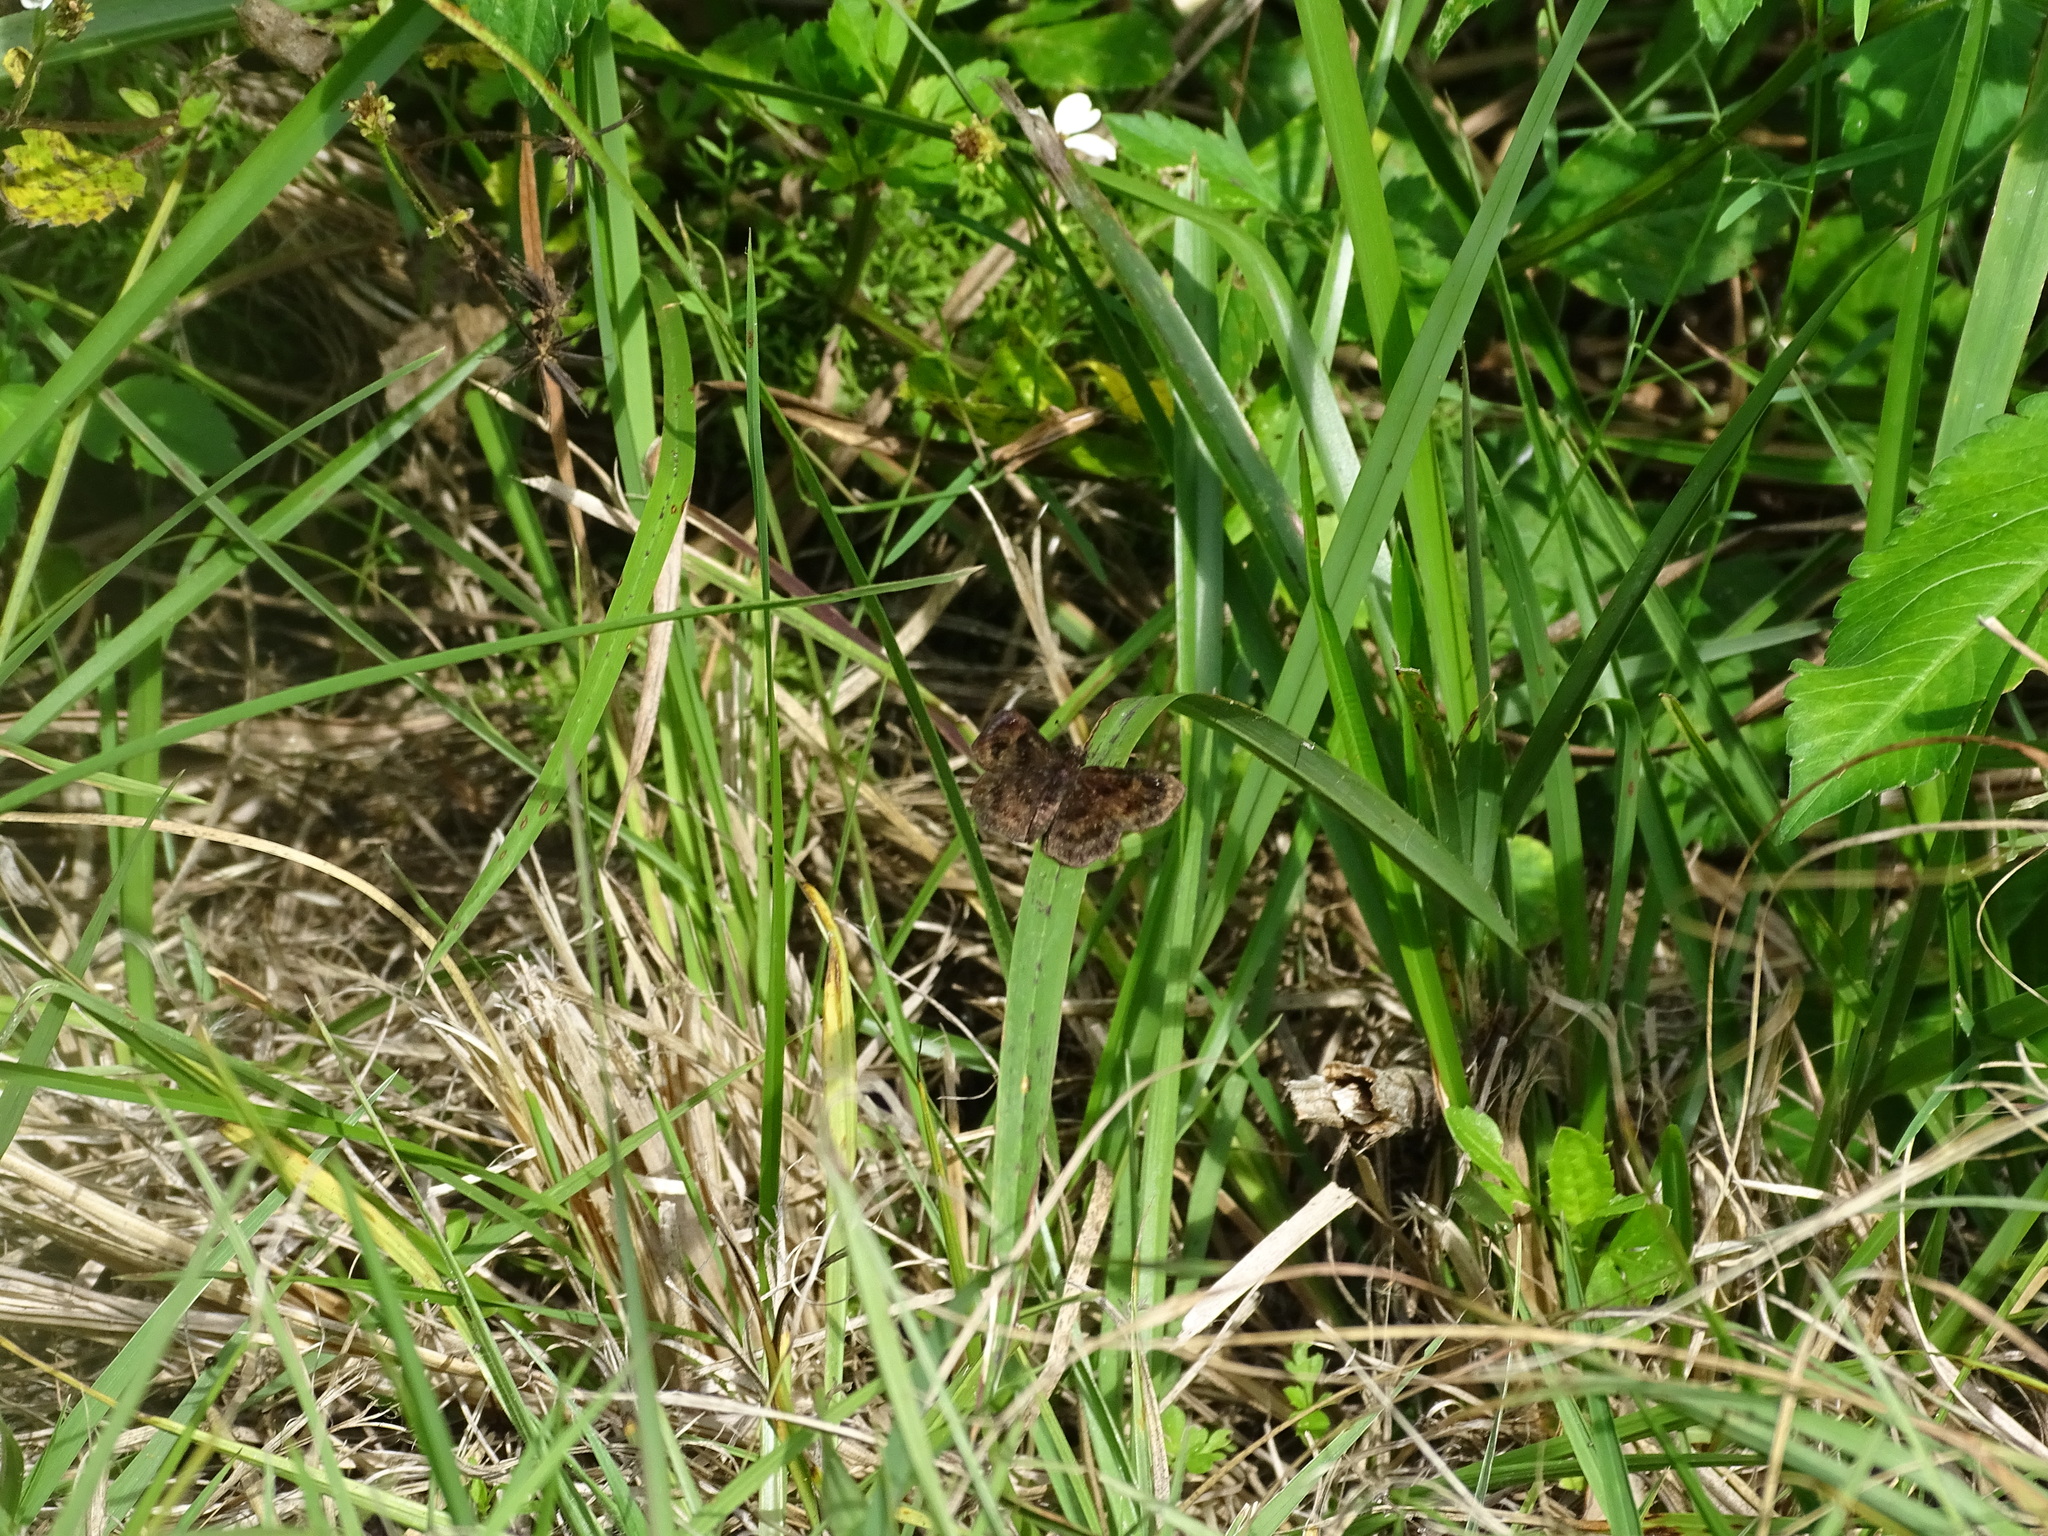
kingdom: Animalia
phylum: Arthropoda
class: Insecta
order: Lepidoptera
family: Hesperiidae
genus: Staphylus
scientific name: Staphylus mazans
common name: Mazans scallopwing
